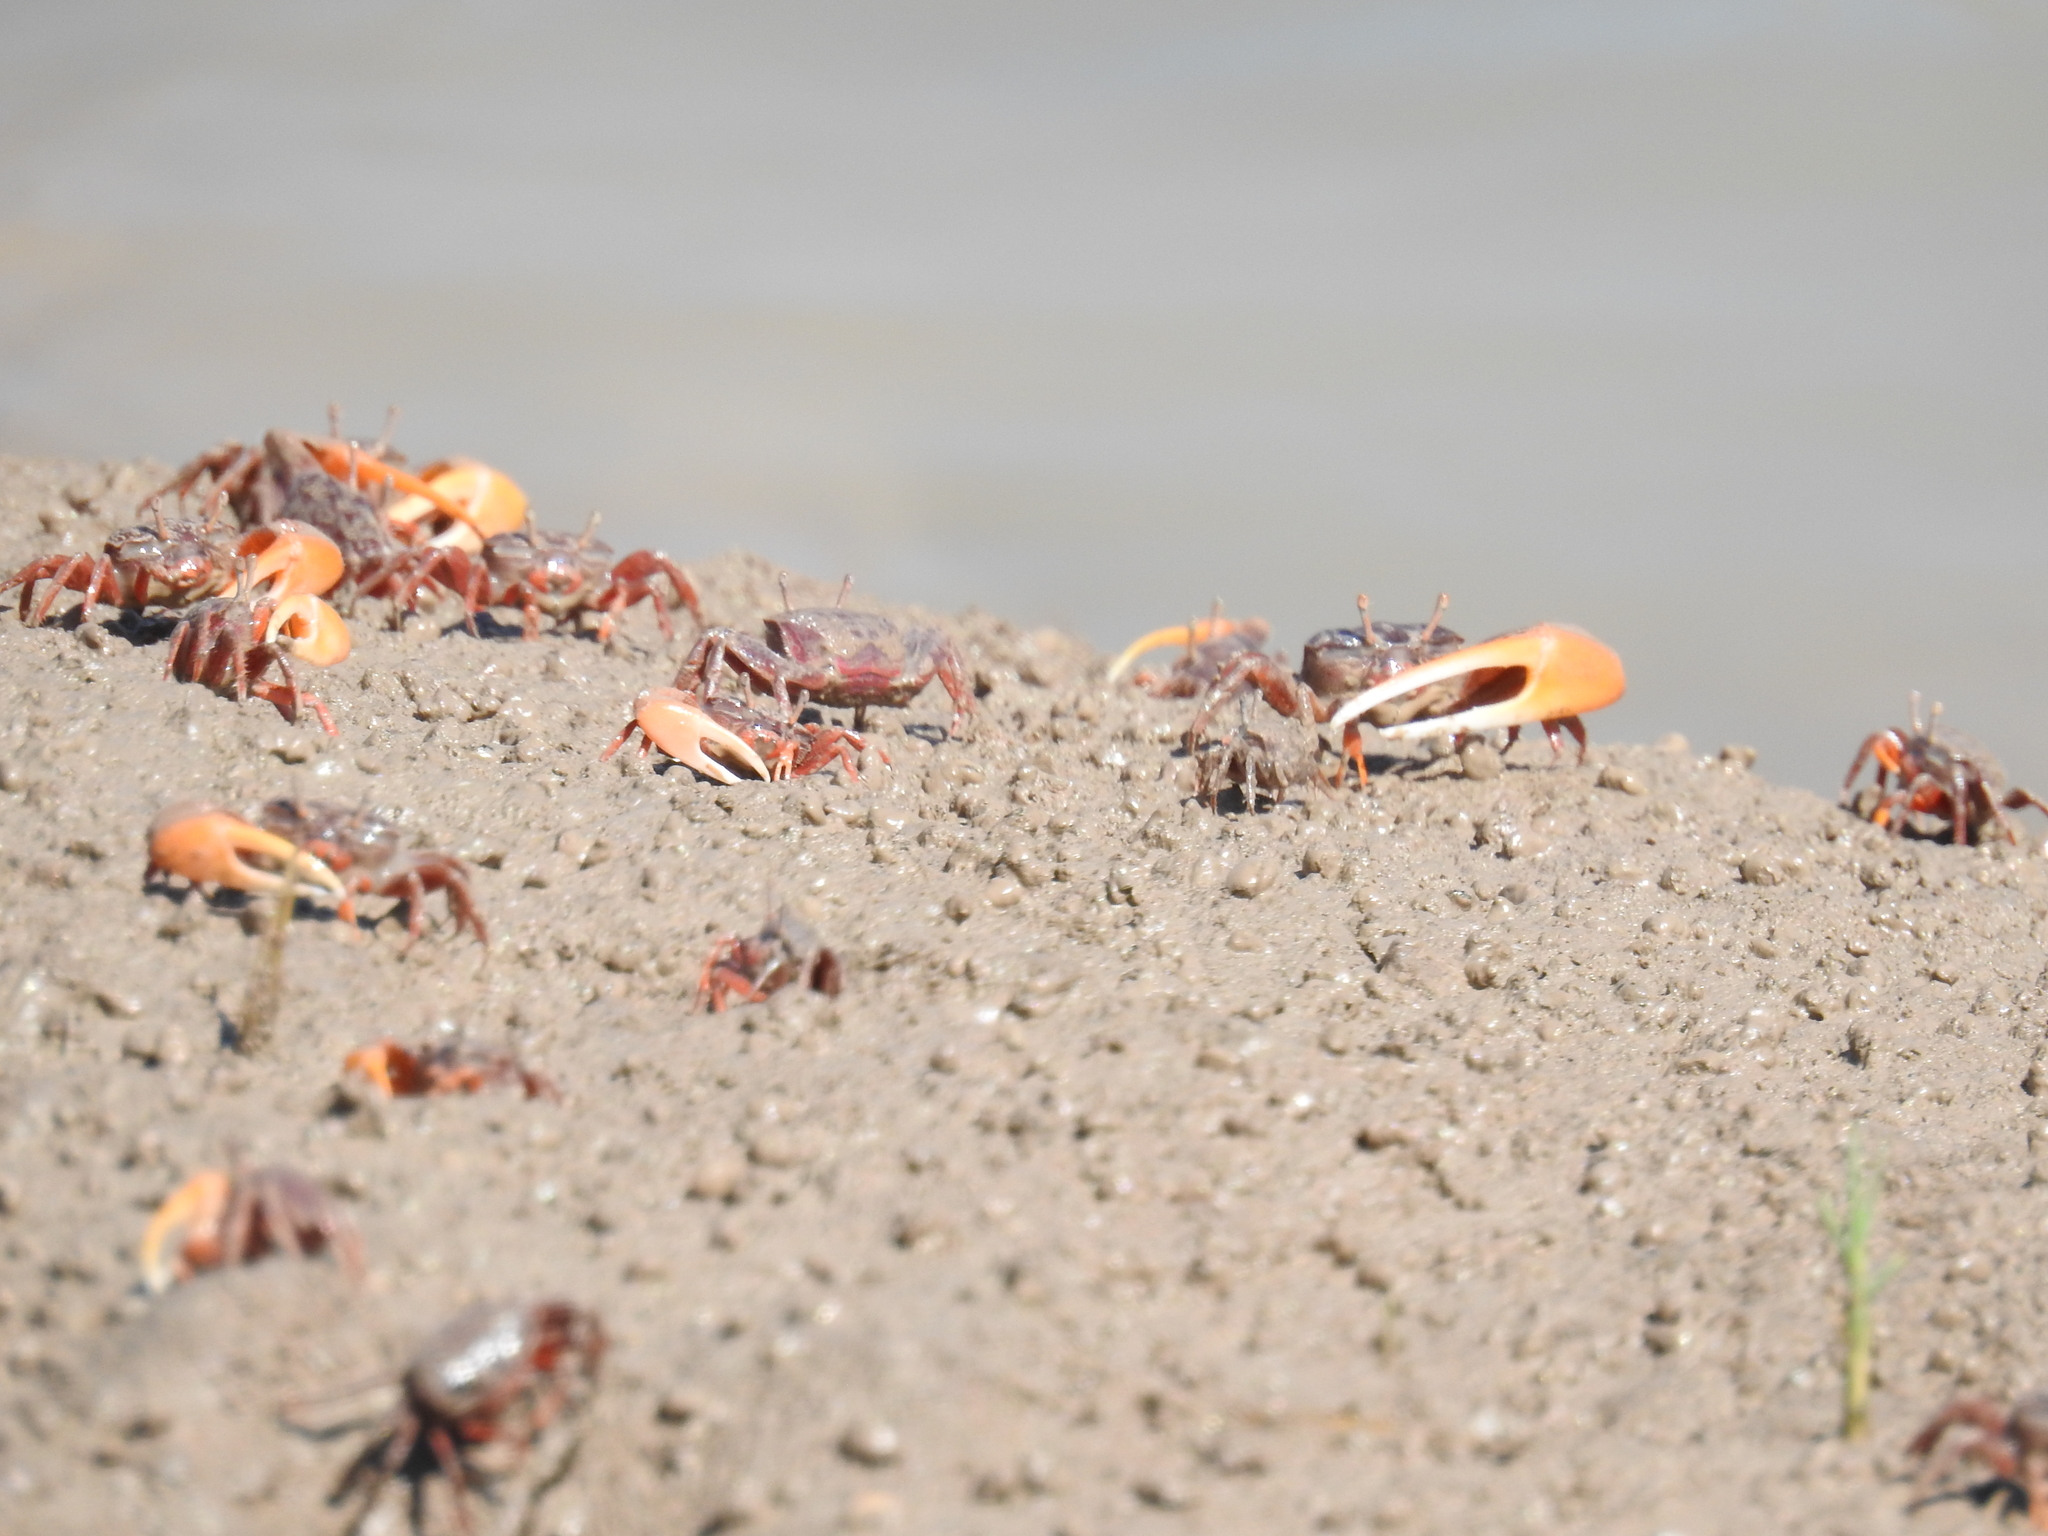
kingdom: Animalia
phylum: Arthropoda
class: Malacostraca
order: Decapoda
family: Ocypodidae
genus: Leptuca
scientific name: Leptuca coloradensis
